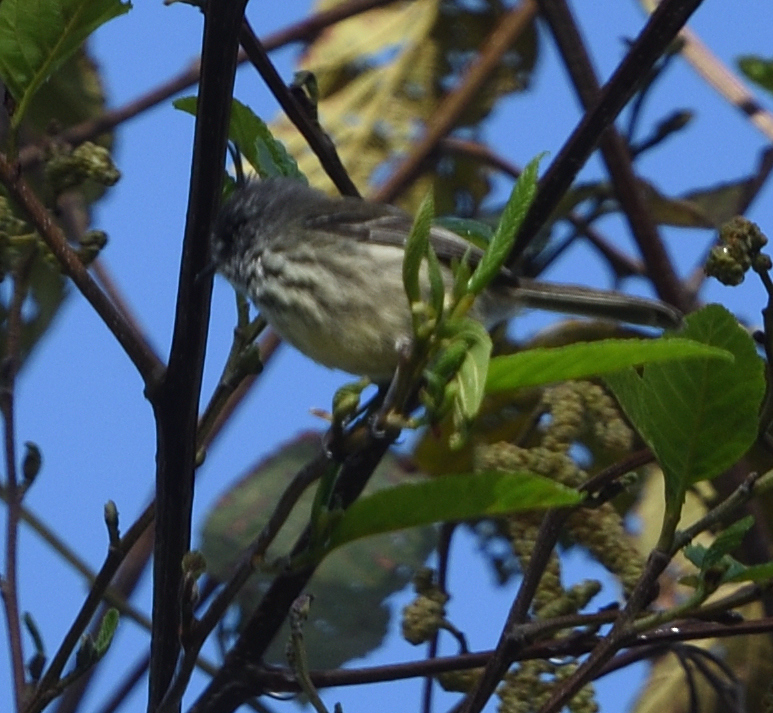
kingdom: Animalia
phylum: Chordata
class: Aves
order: Passeriformes
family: Tyrannidae
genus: Anairetes
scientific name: Anairetes parulus
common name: Tufted tit-tyrant
